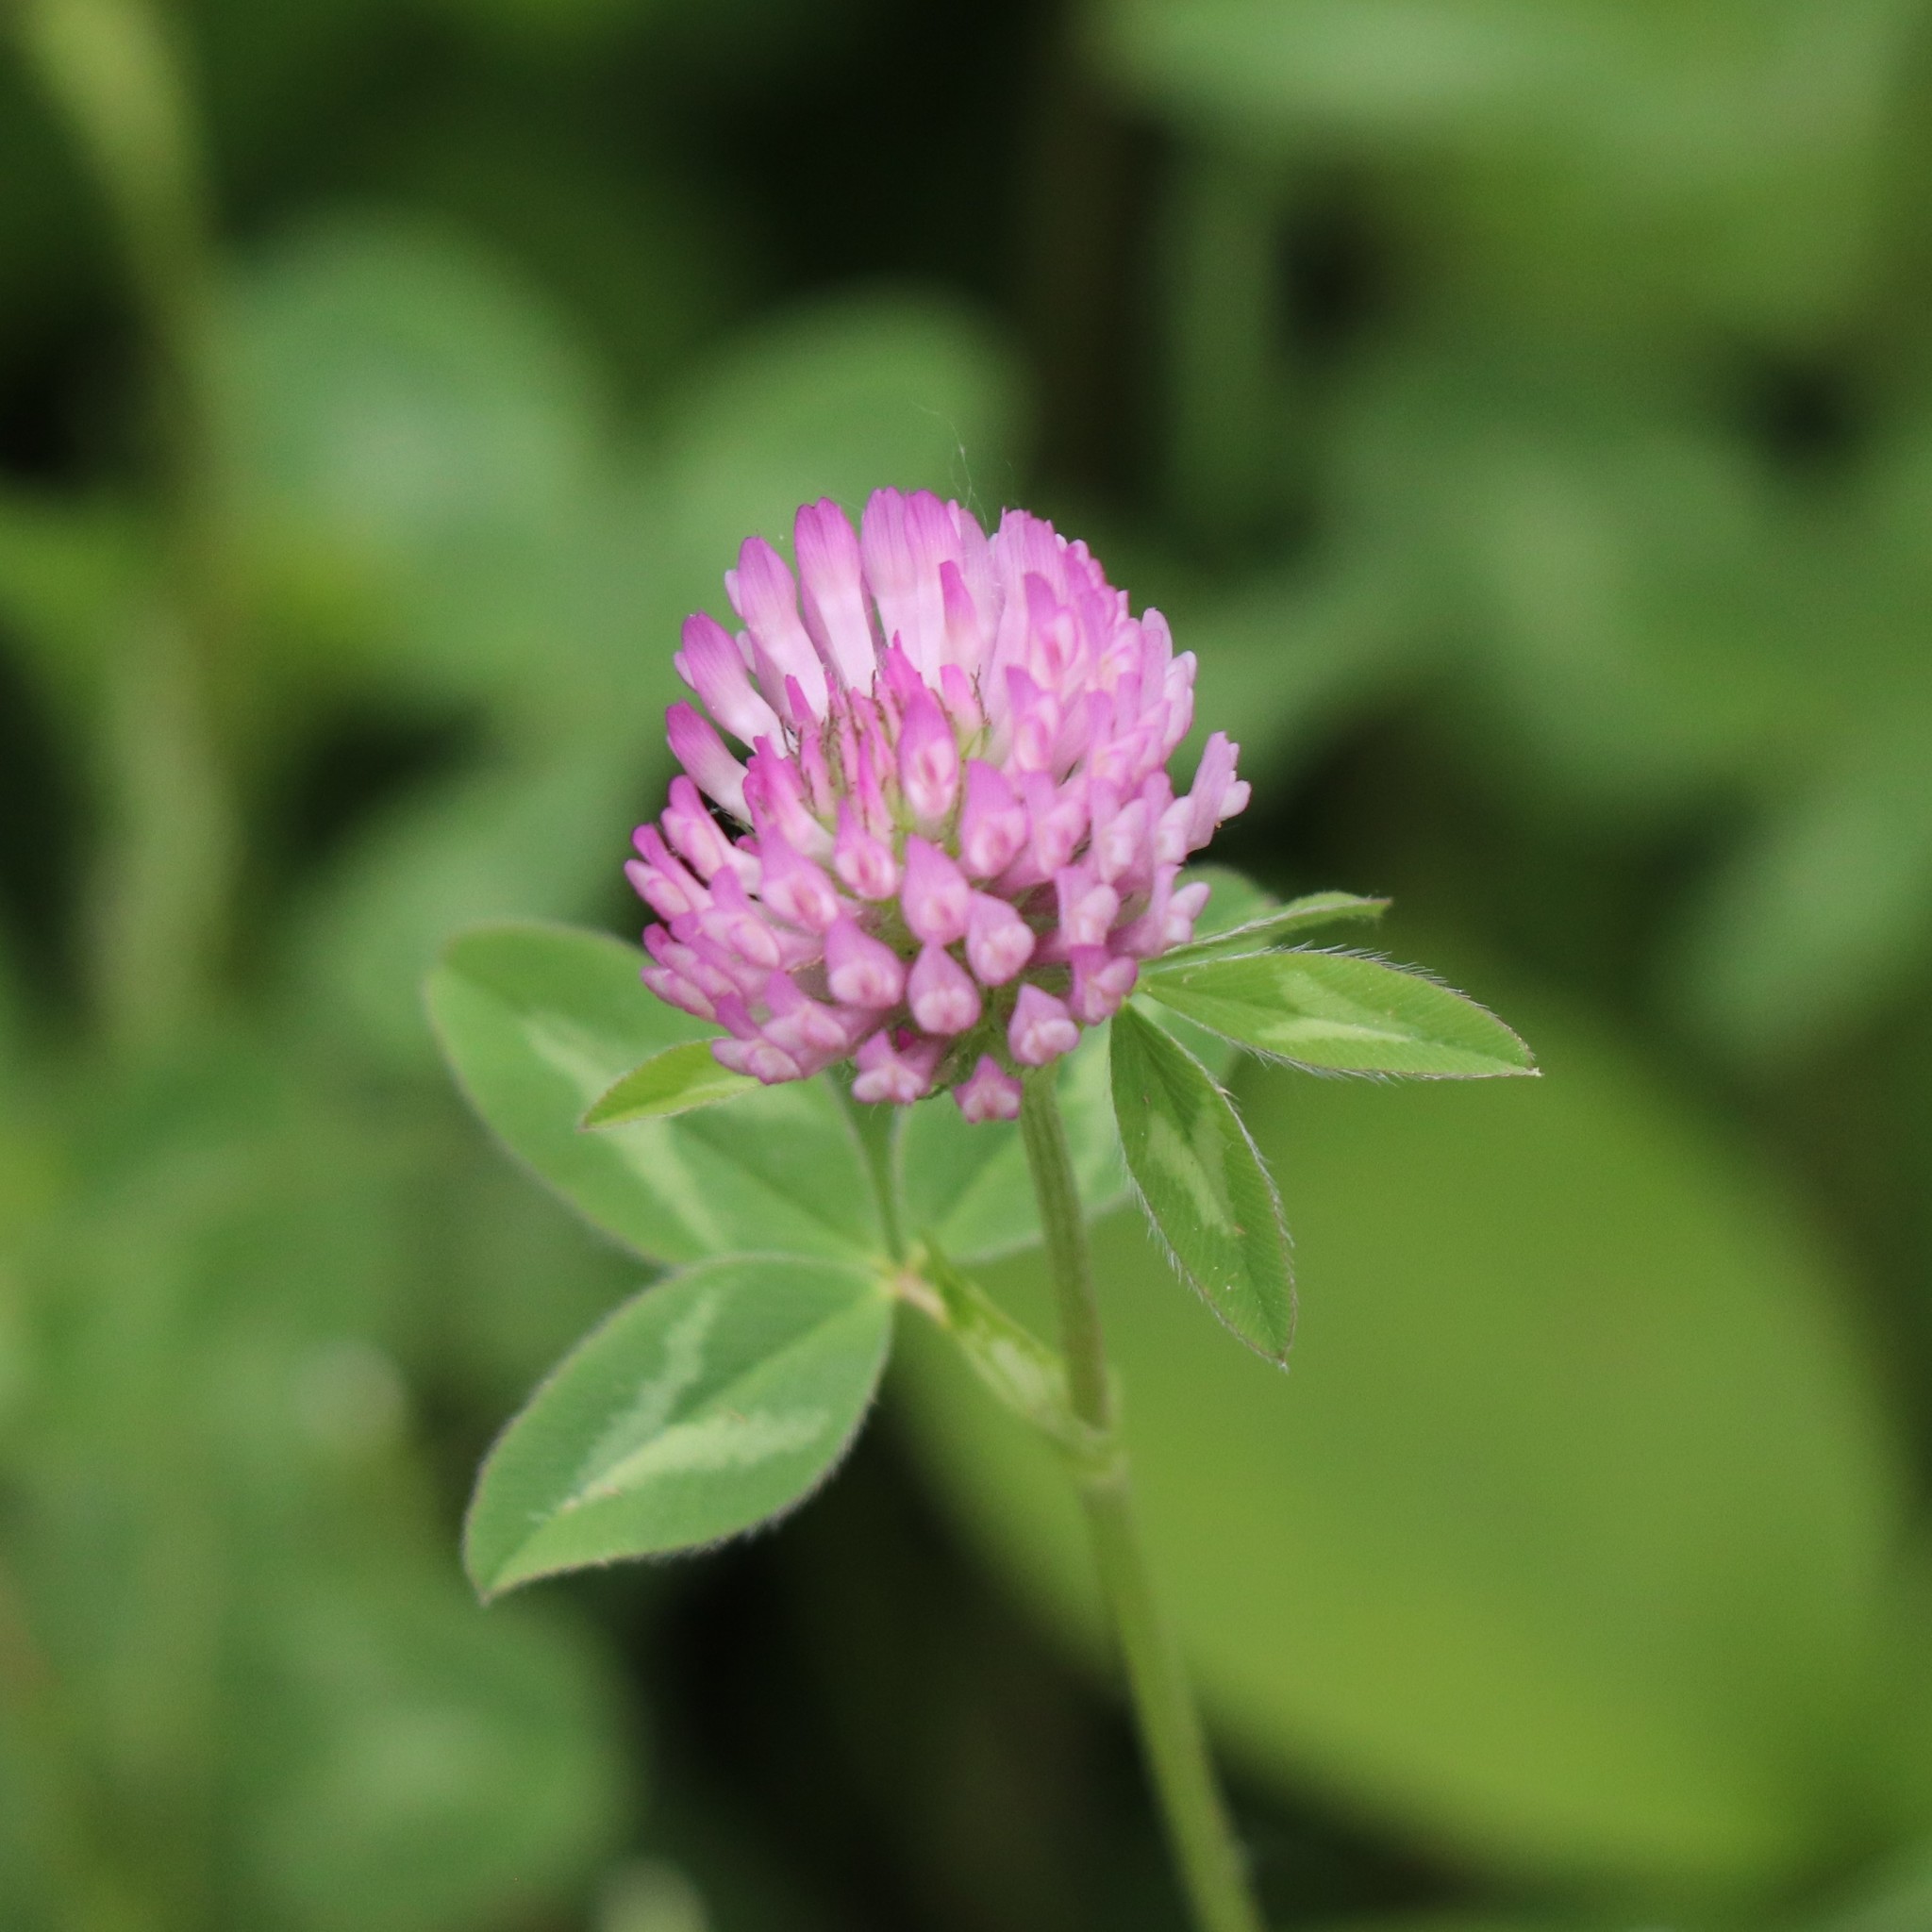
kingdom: Plantae
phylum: Tracheophyta
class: Magnoliopsida
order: Fabales
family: Fabaceae
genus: Trifolium
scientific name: Trifolium pratense
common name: Red clover
